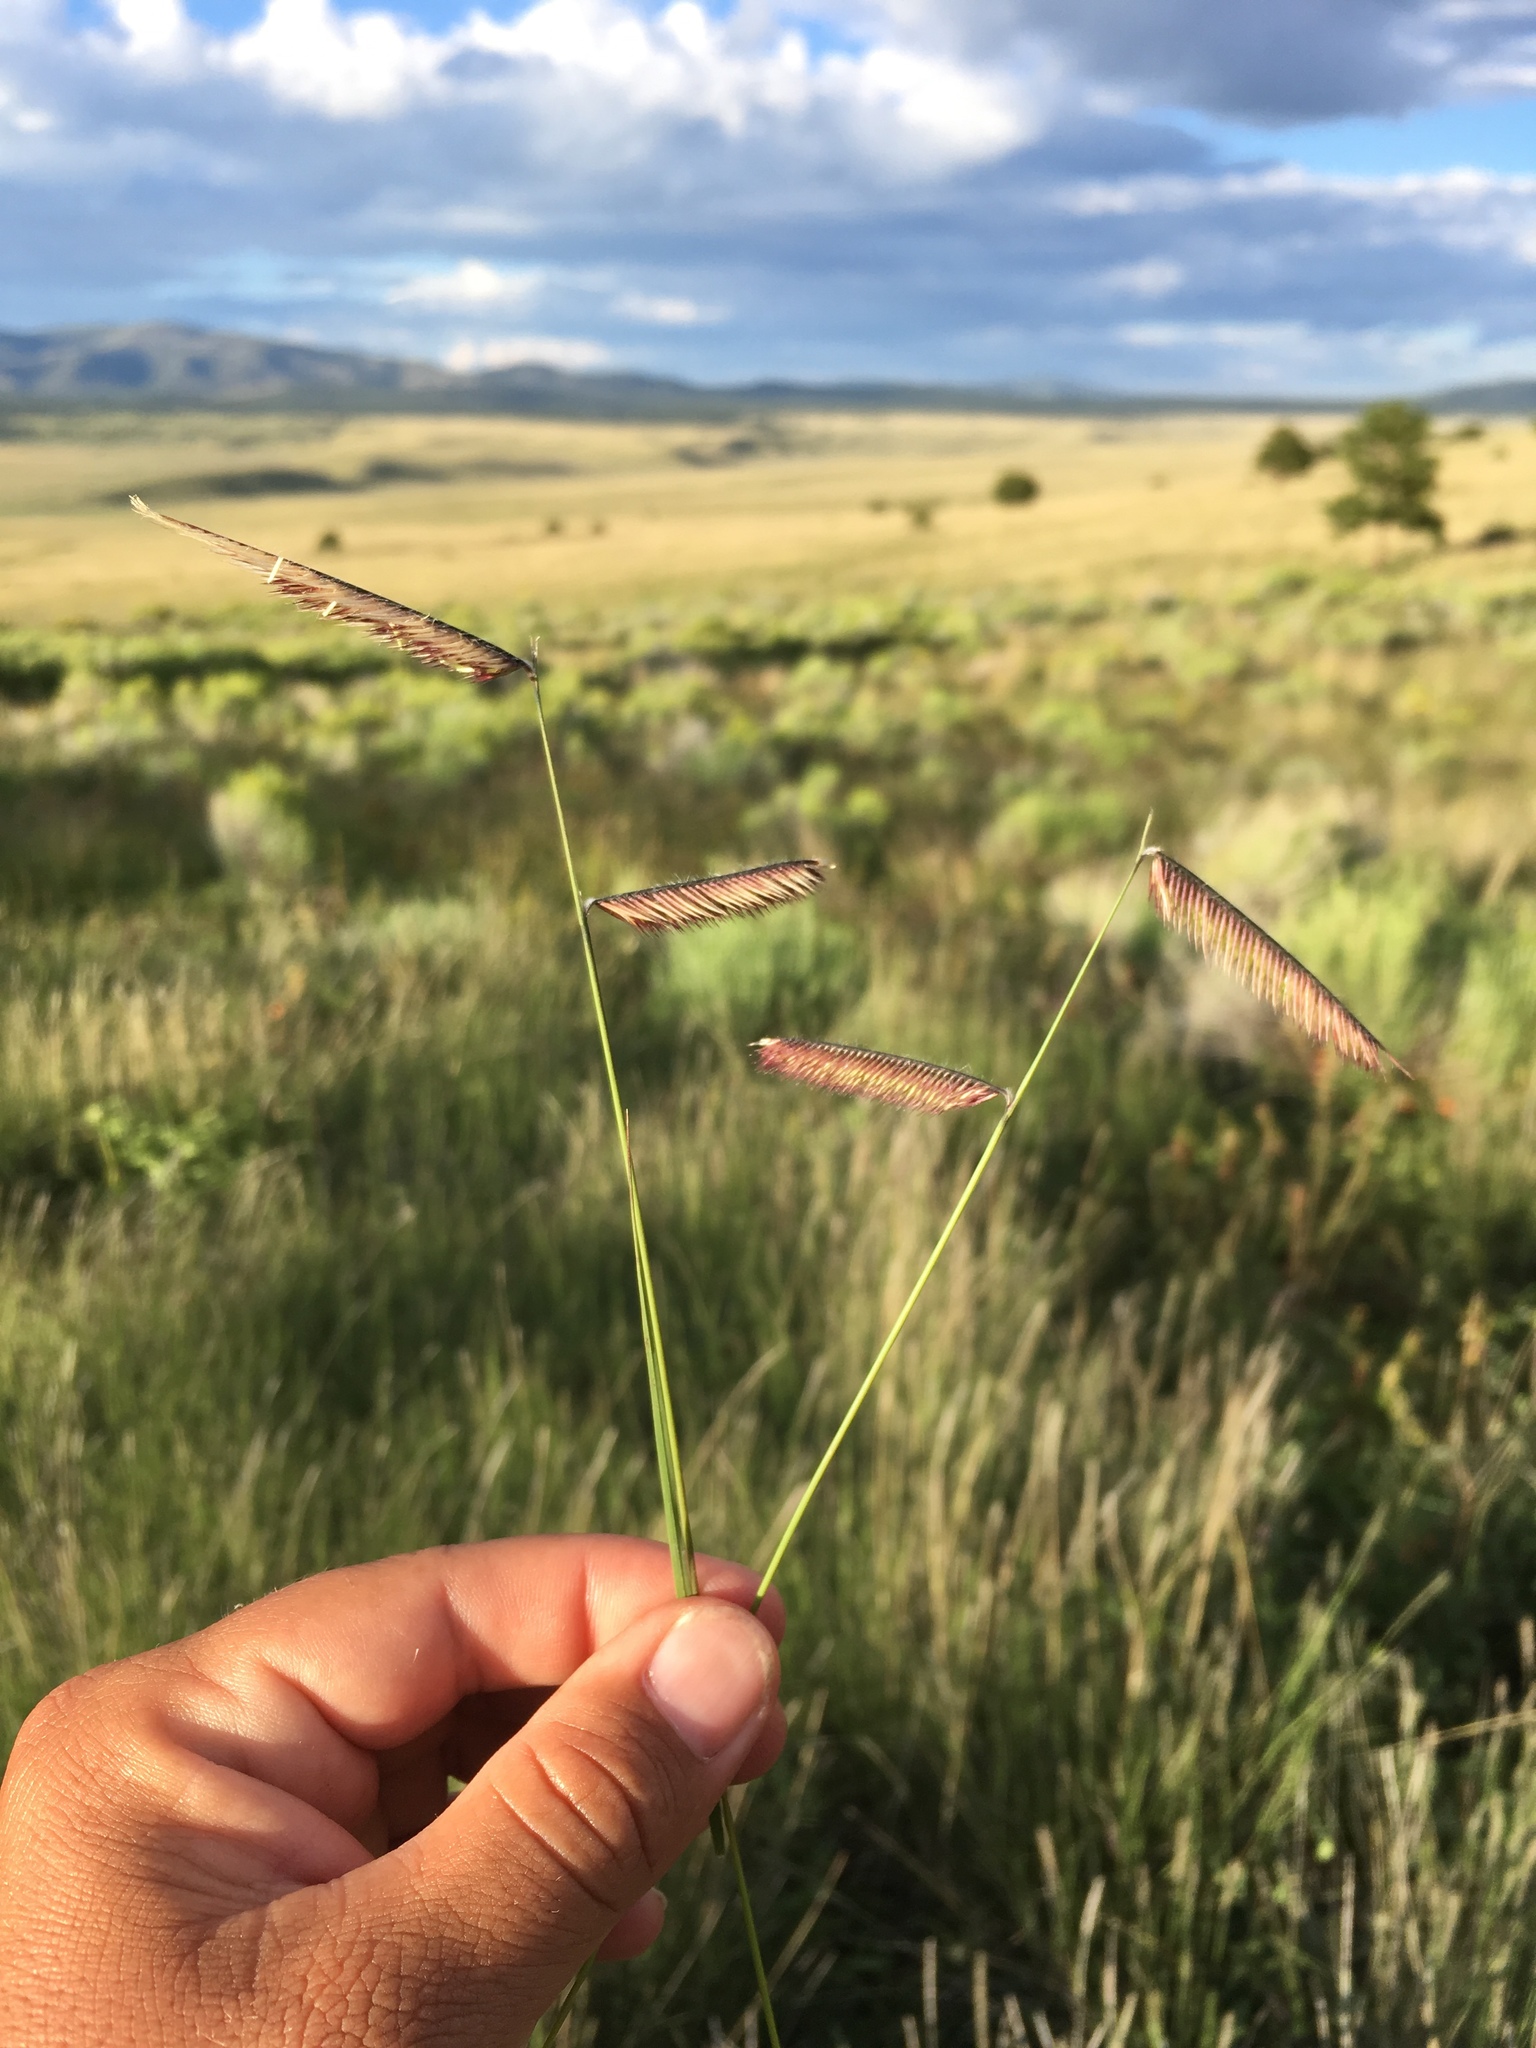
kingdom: Plantae
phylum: Tracheophyta
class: Liliopsida
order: Poales
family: Poaceae
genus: Bouteloua
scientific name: Bouteloua gracilis
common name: Blue grama
